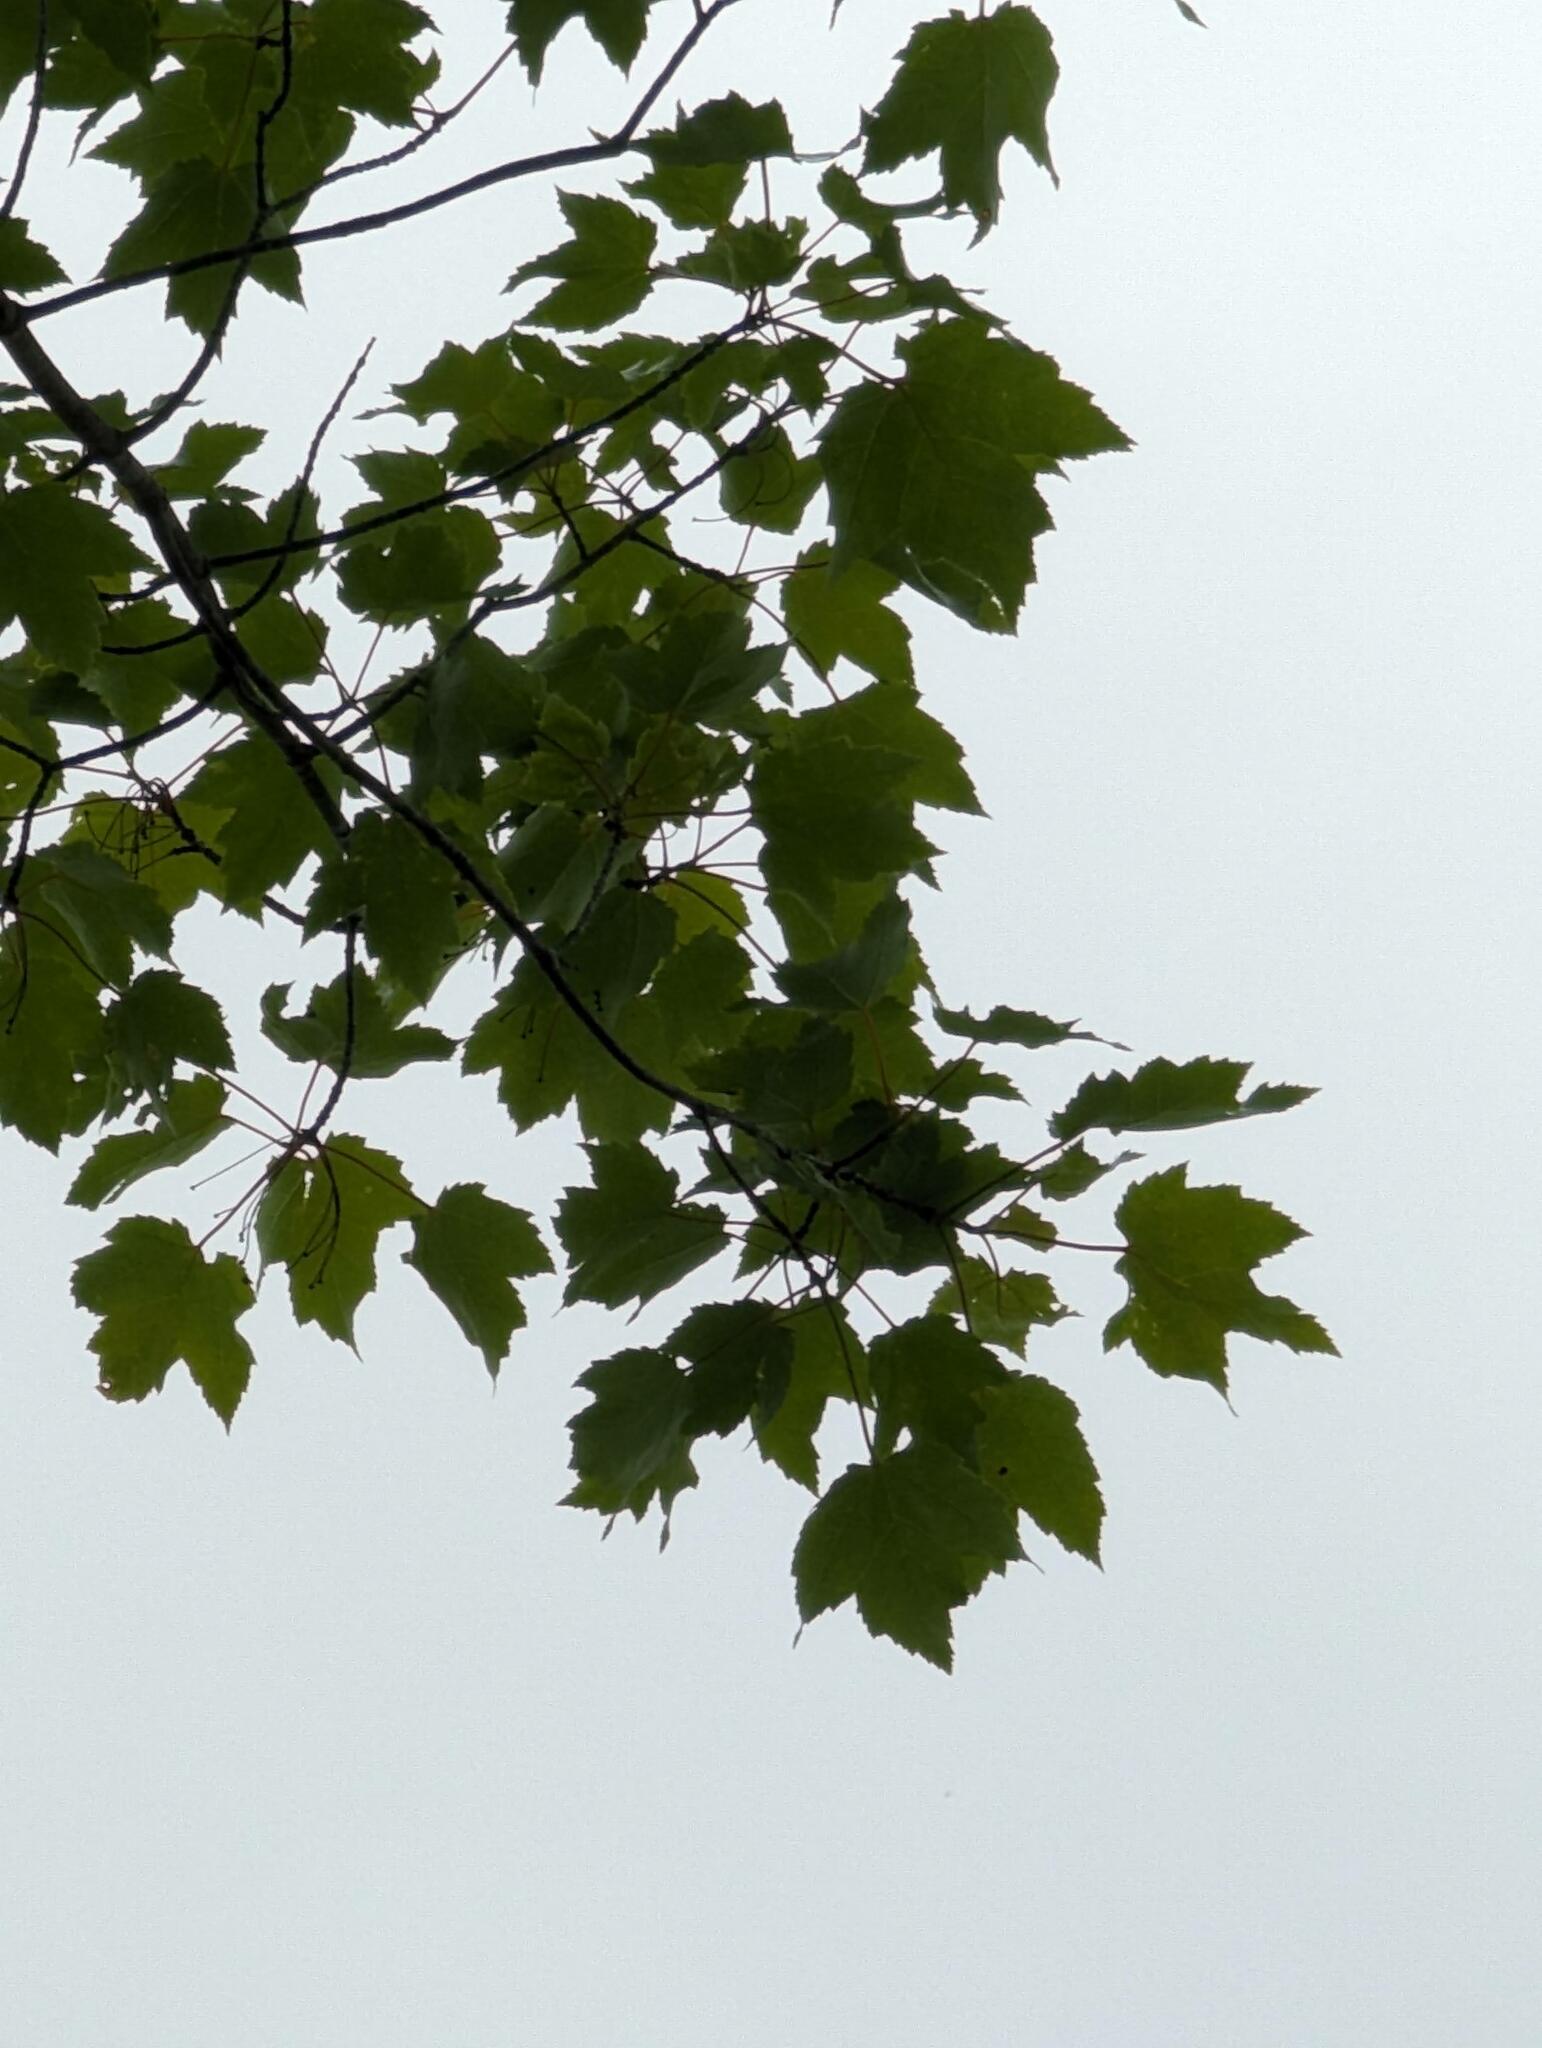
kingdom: Plantae
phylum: Tracheophyta
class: Magnoliopsida
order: Sapindales
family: Sapindaceae
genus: Acer
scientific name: Acer rubrum
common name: Red maple
